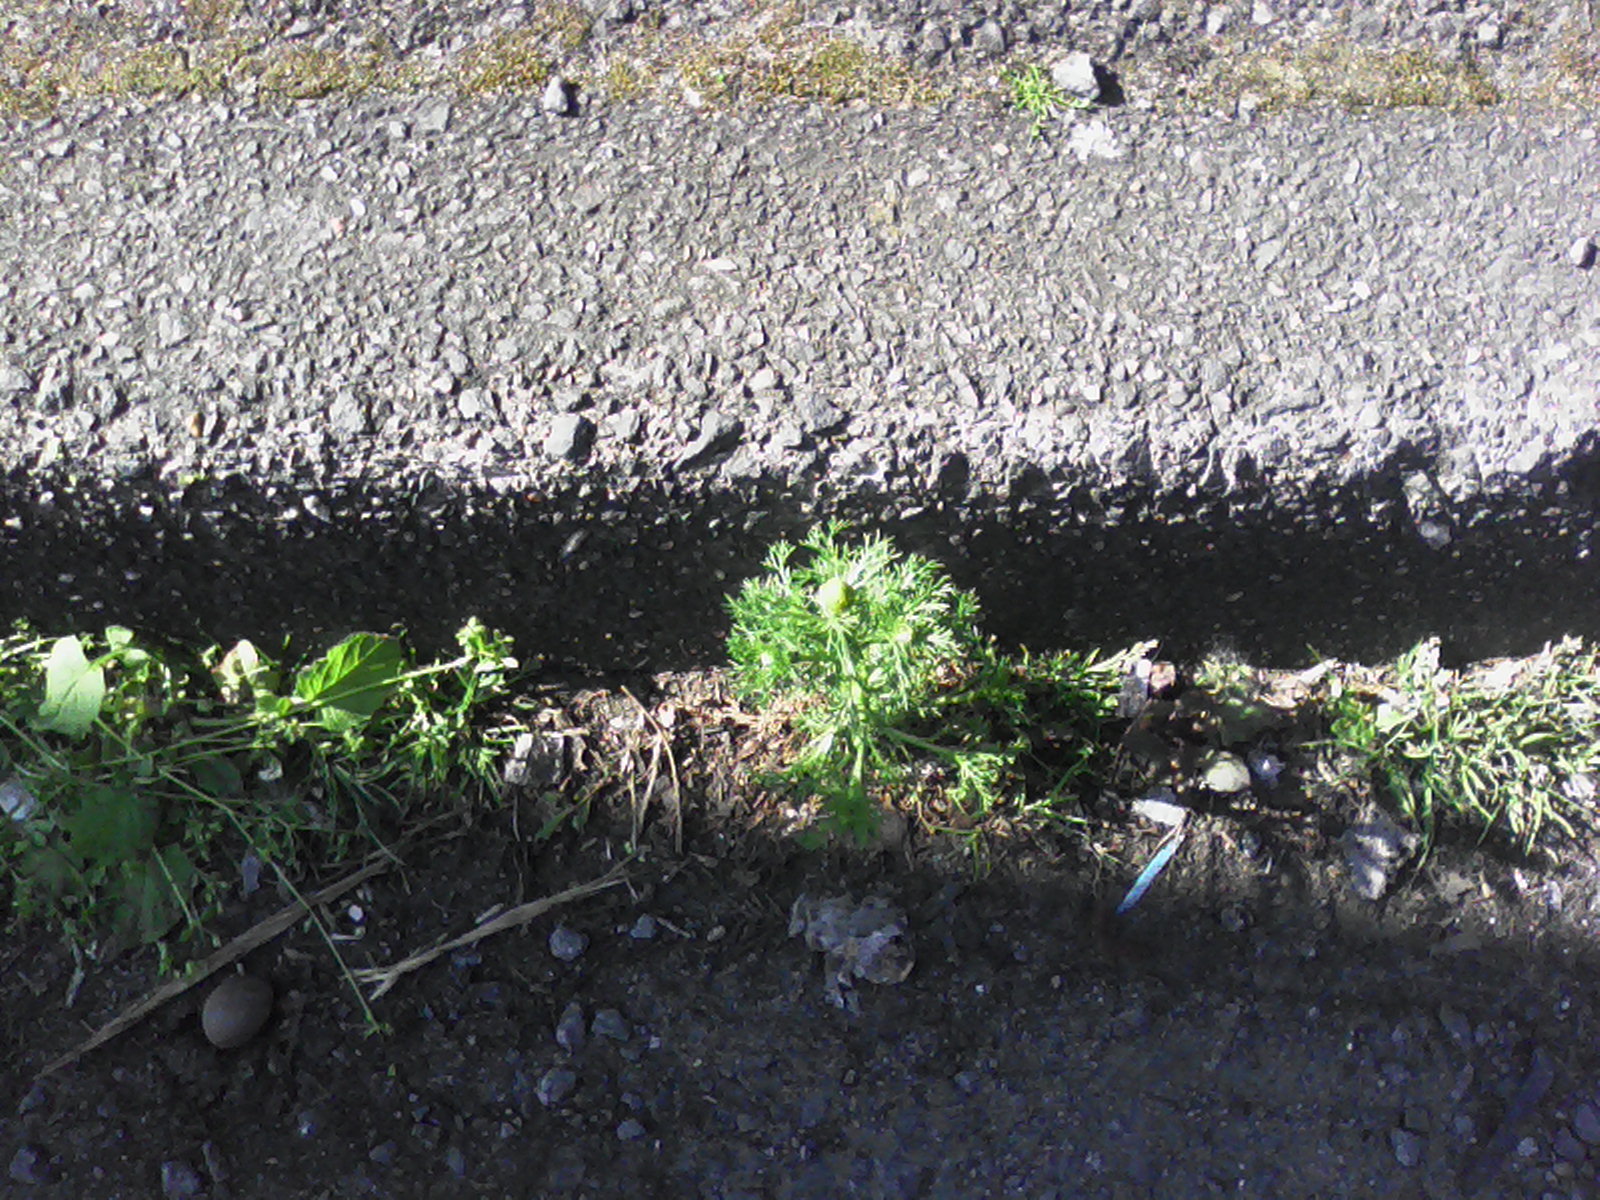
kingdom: Plantae
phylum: Tracheophyta
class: Magnoliopsida
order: Asterales
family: Asteraceae
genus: Matricaria
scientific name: Matricaria discoidea
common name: Disc mayweed
